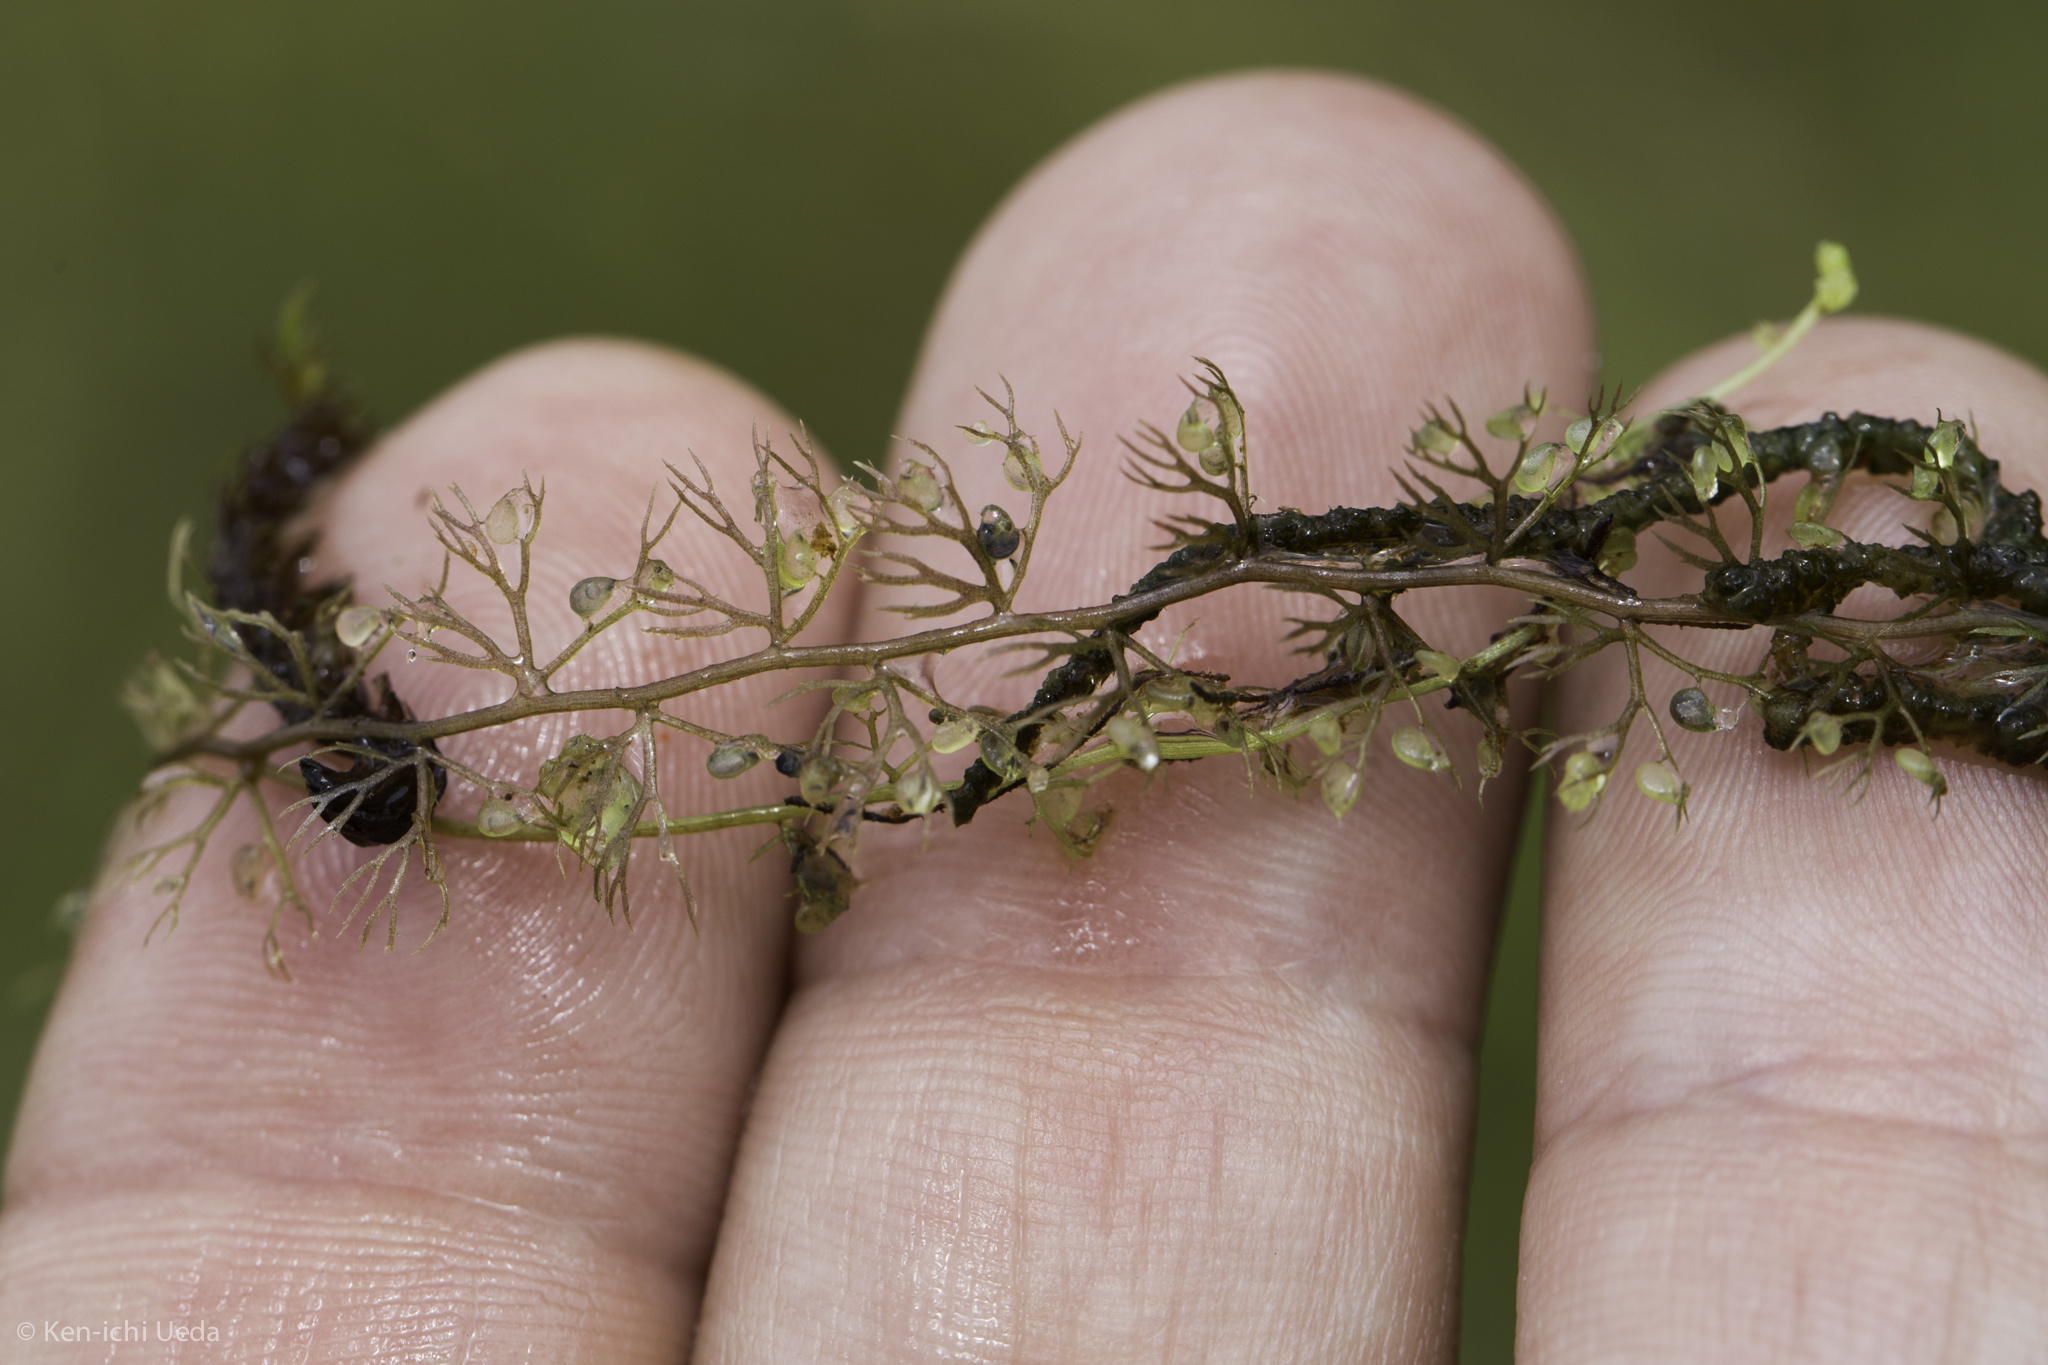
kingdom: Plantae
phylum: Tracheophyta
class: Magnoliopsida
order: Lamiales
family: Lentibulariaceae
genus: Utricularia
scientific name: Utricularia minor
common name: Lesser bladderwort
